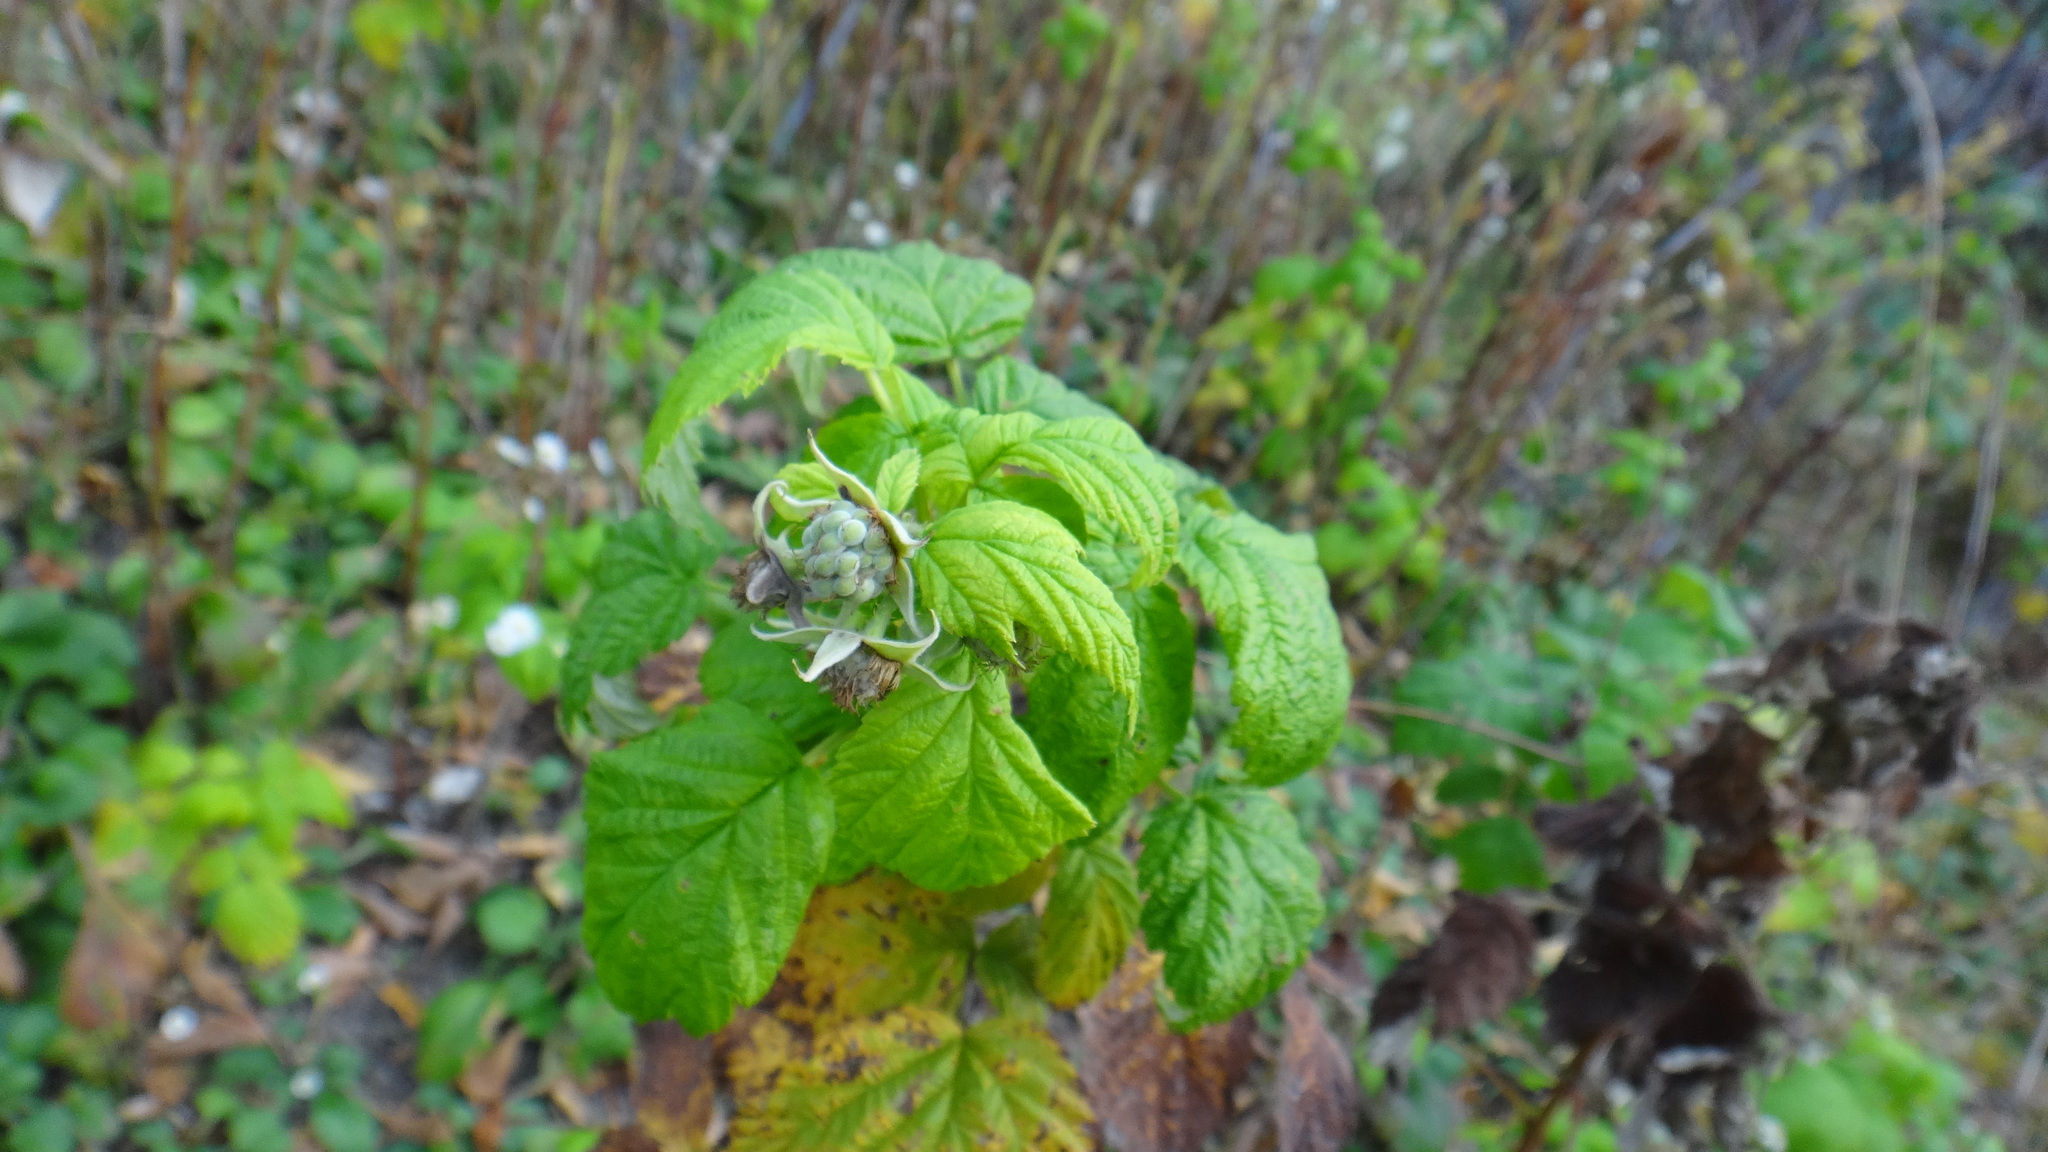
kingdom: Plantae
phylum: Tracheophyta
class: Magnoliopsida
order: Rosales
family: Rosaceae
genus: Rubus
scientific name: Rubus idaeus
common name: Raspberry
